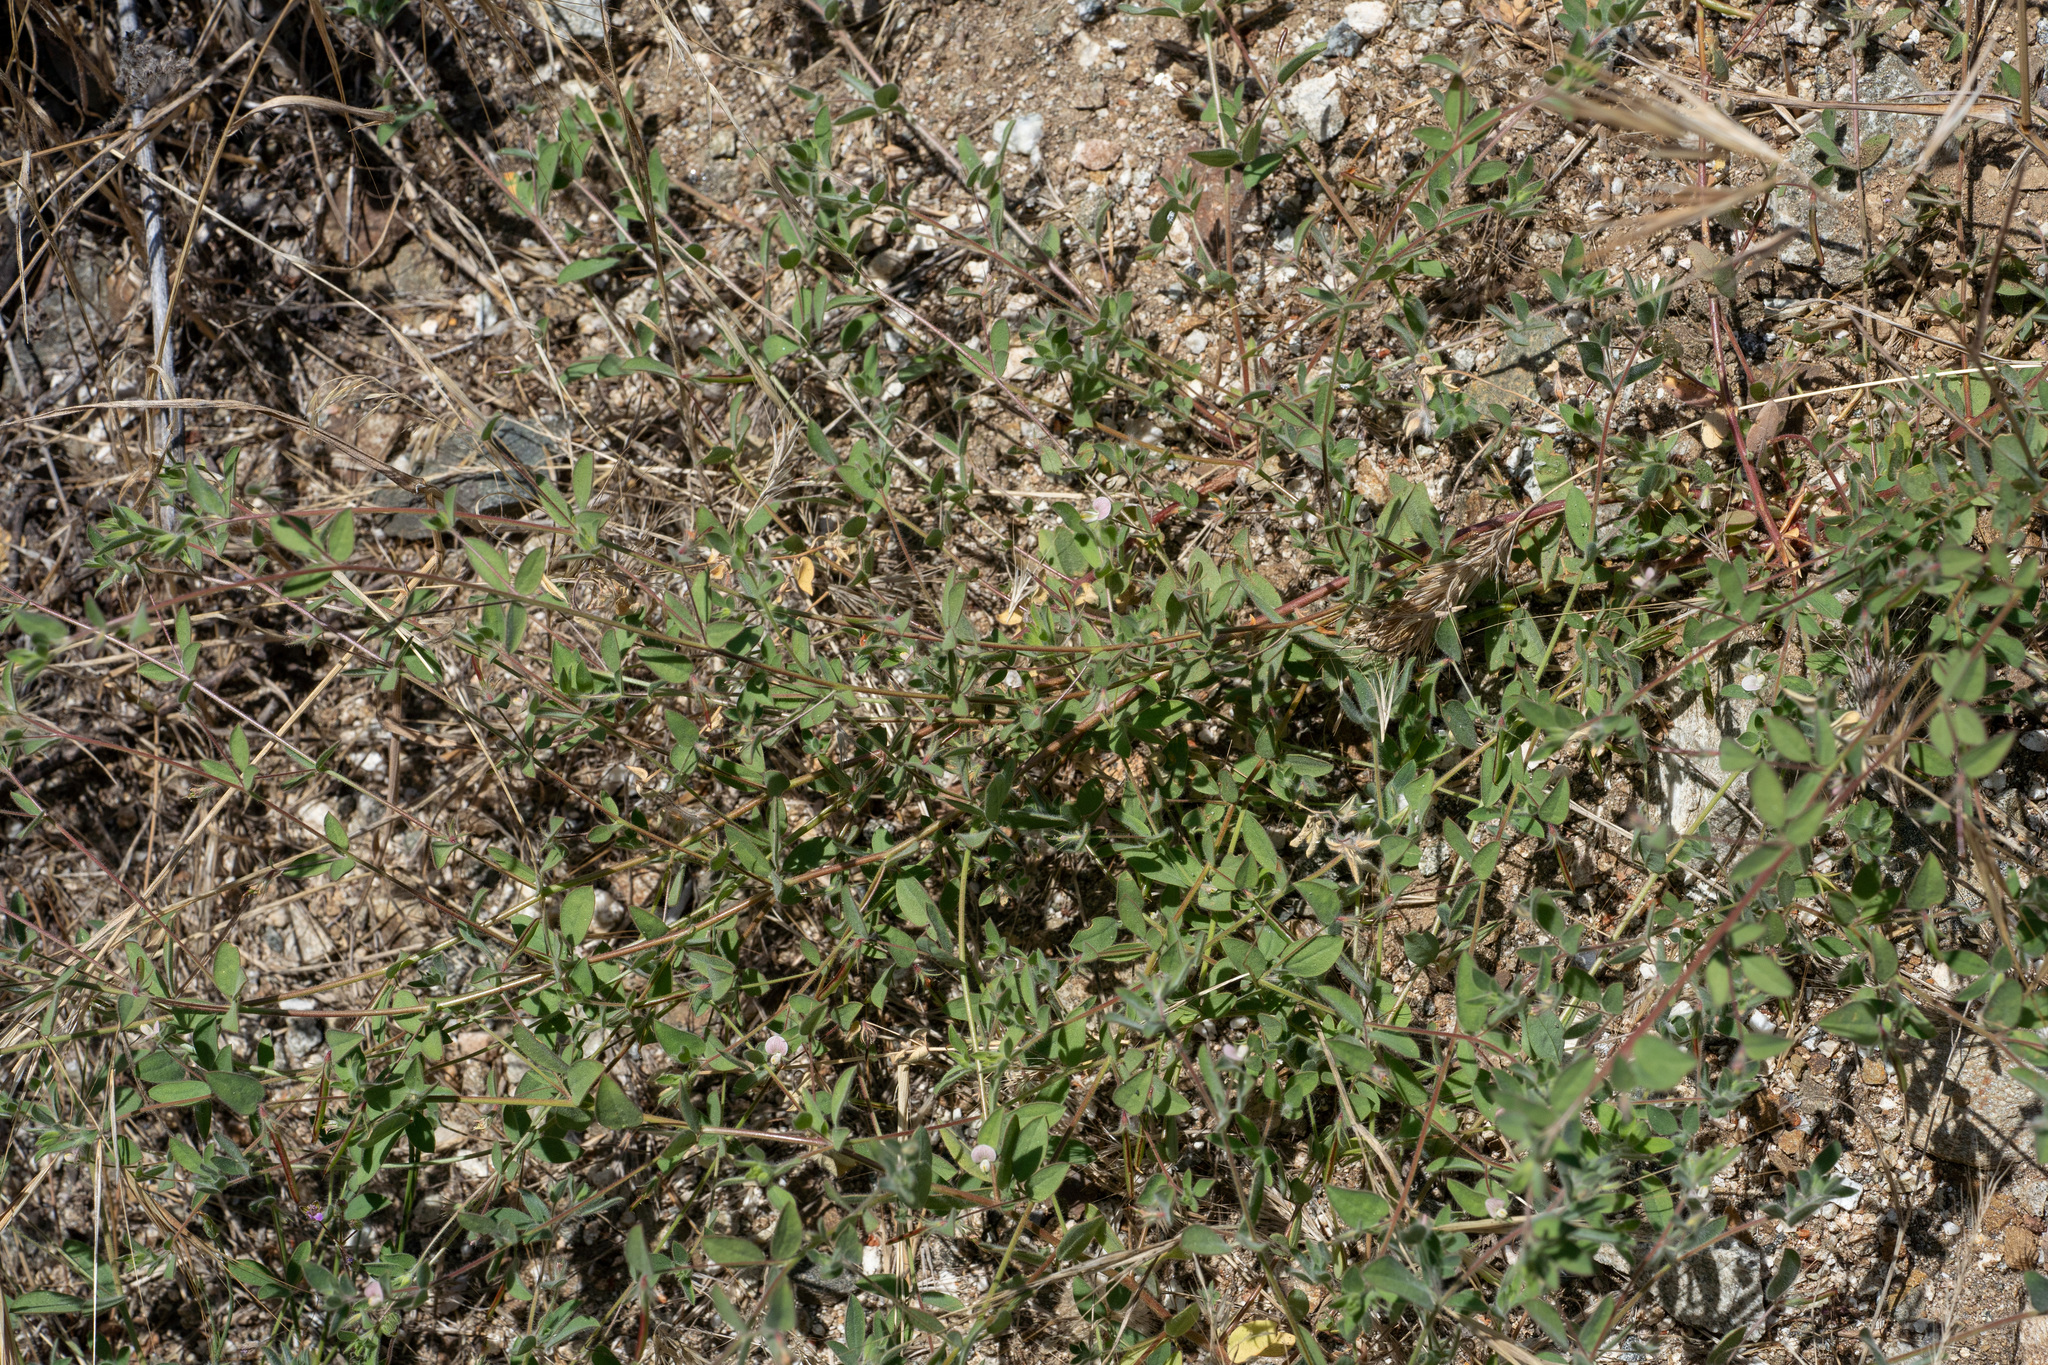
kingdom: Plantae
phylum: Tracheophyta
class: Magnoliopsida
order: Fabales
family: Fabaceae
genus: Acmispon
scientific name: Acmispon americanus
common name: American bird's-foot trefoil
